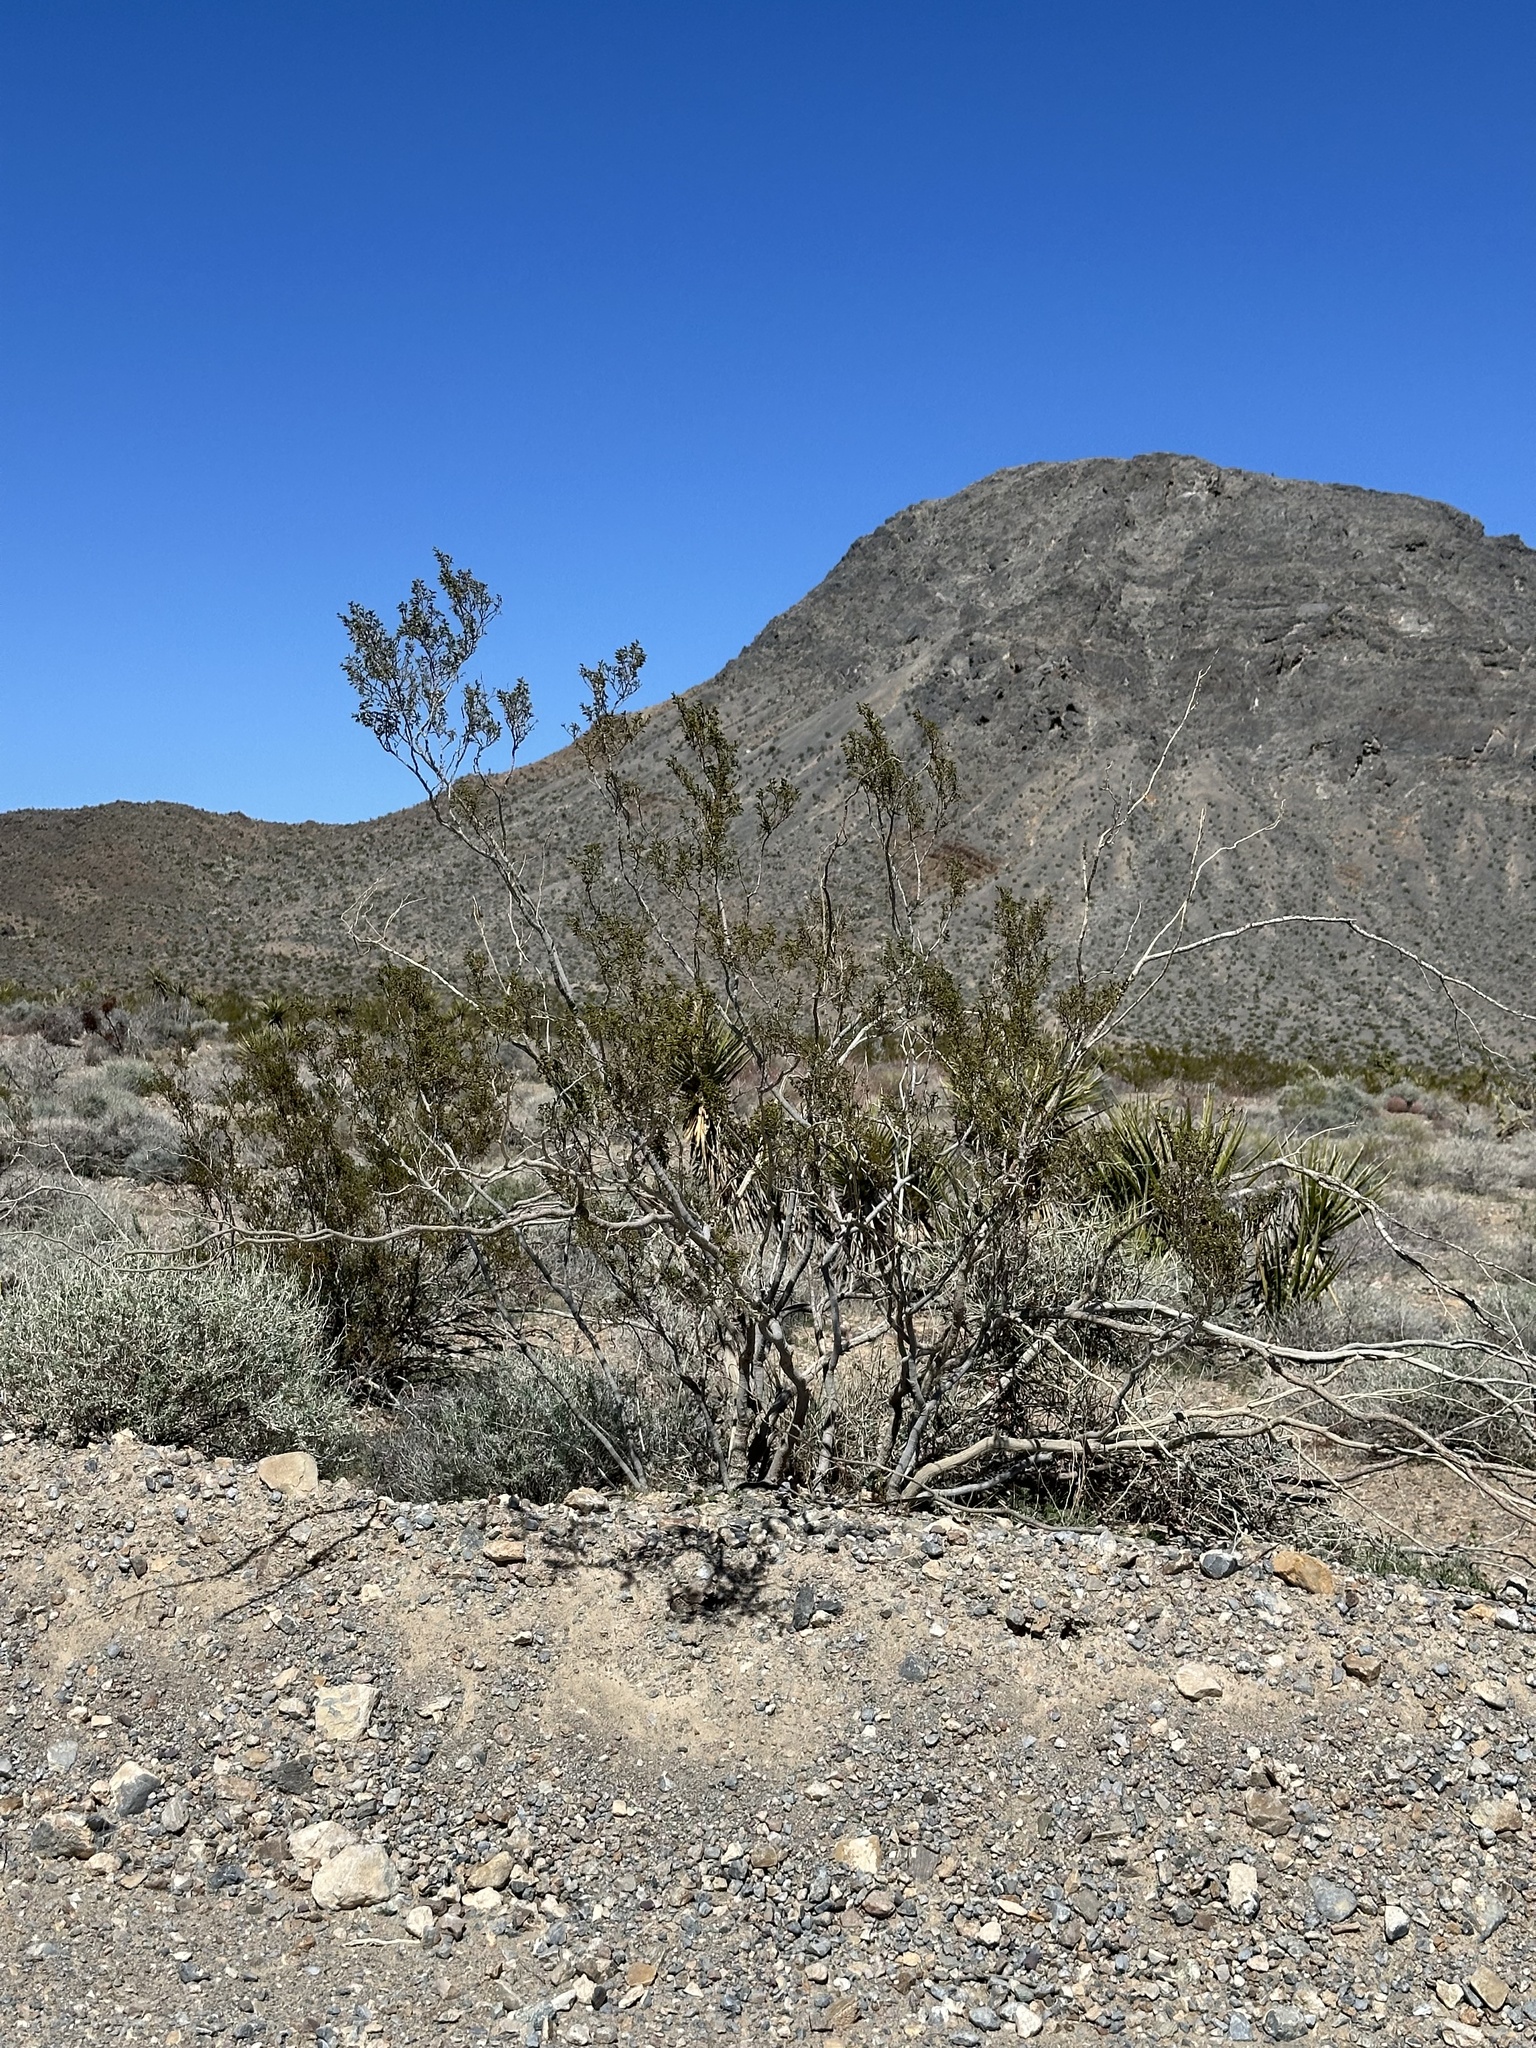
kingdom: Plantae
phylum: Tracheophyta
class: Magnoliopsida
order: Zygophyllales
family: Zygophyllaceae
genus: Larrea
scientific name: Larrea tridentata
